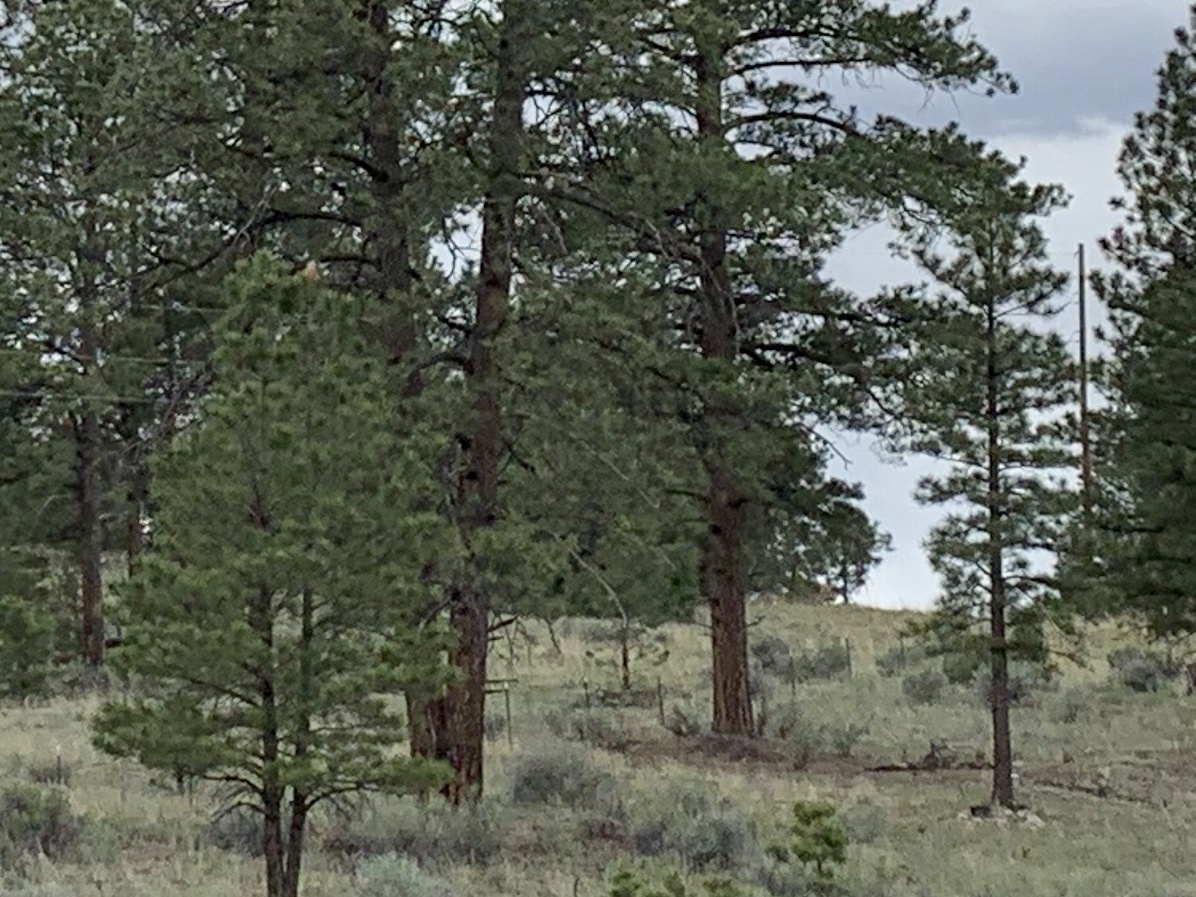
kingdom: Plantae
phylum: Tracheophyta
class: Pinopsida
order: Pinales
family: Pinaceae
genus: Pinus
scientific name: Pinus ponderosa
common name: Western yellow-pine
